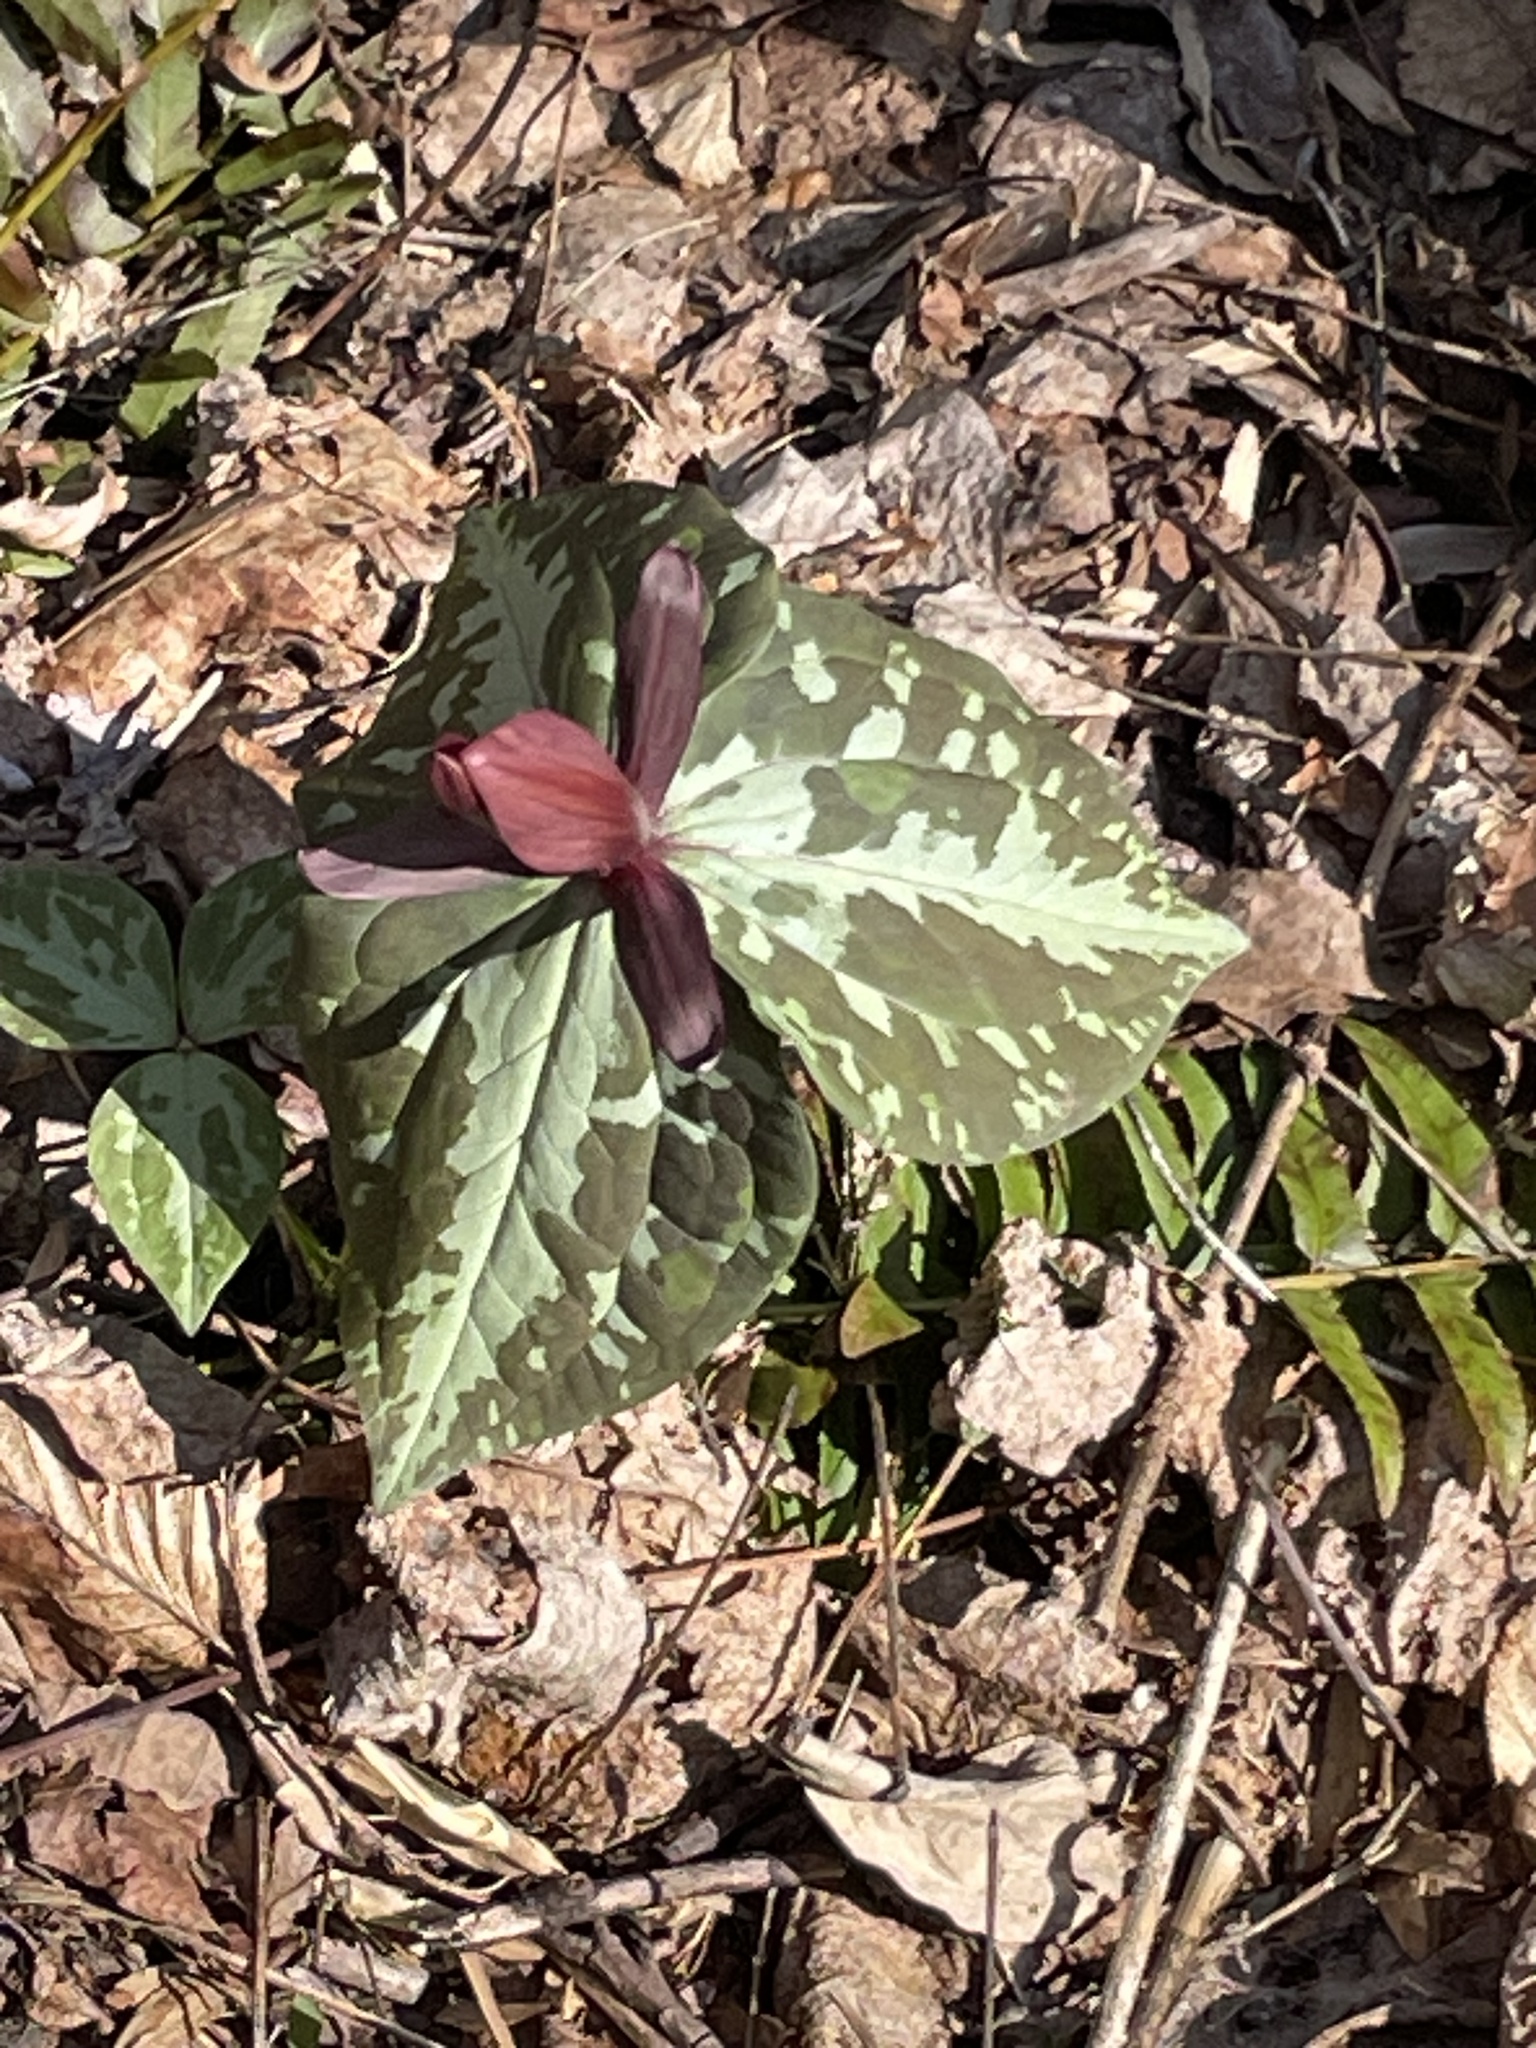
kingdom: Plantae
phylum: Tracheophyta
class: Liliopsida
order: Liliales
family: Melanthiaceae
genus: Trillium
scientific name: Trillium cuneatum
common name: Cuneate trillium
